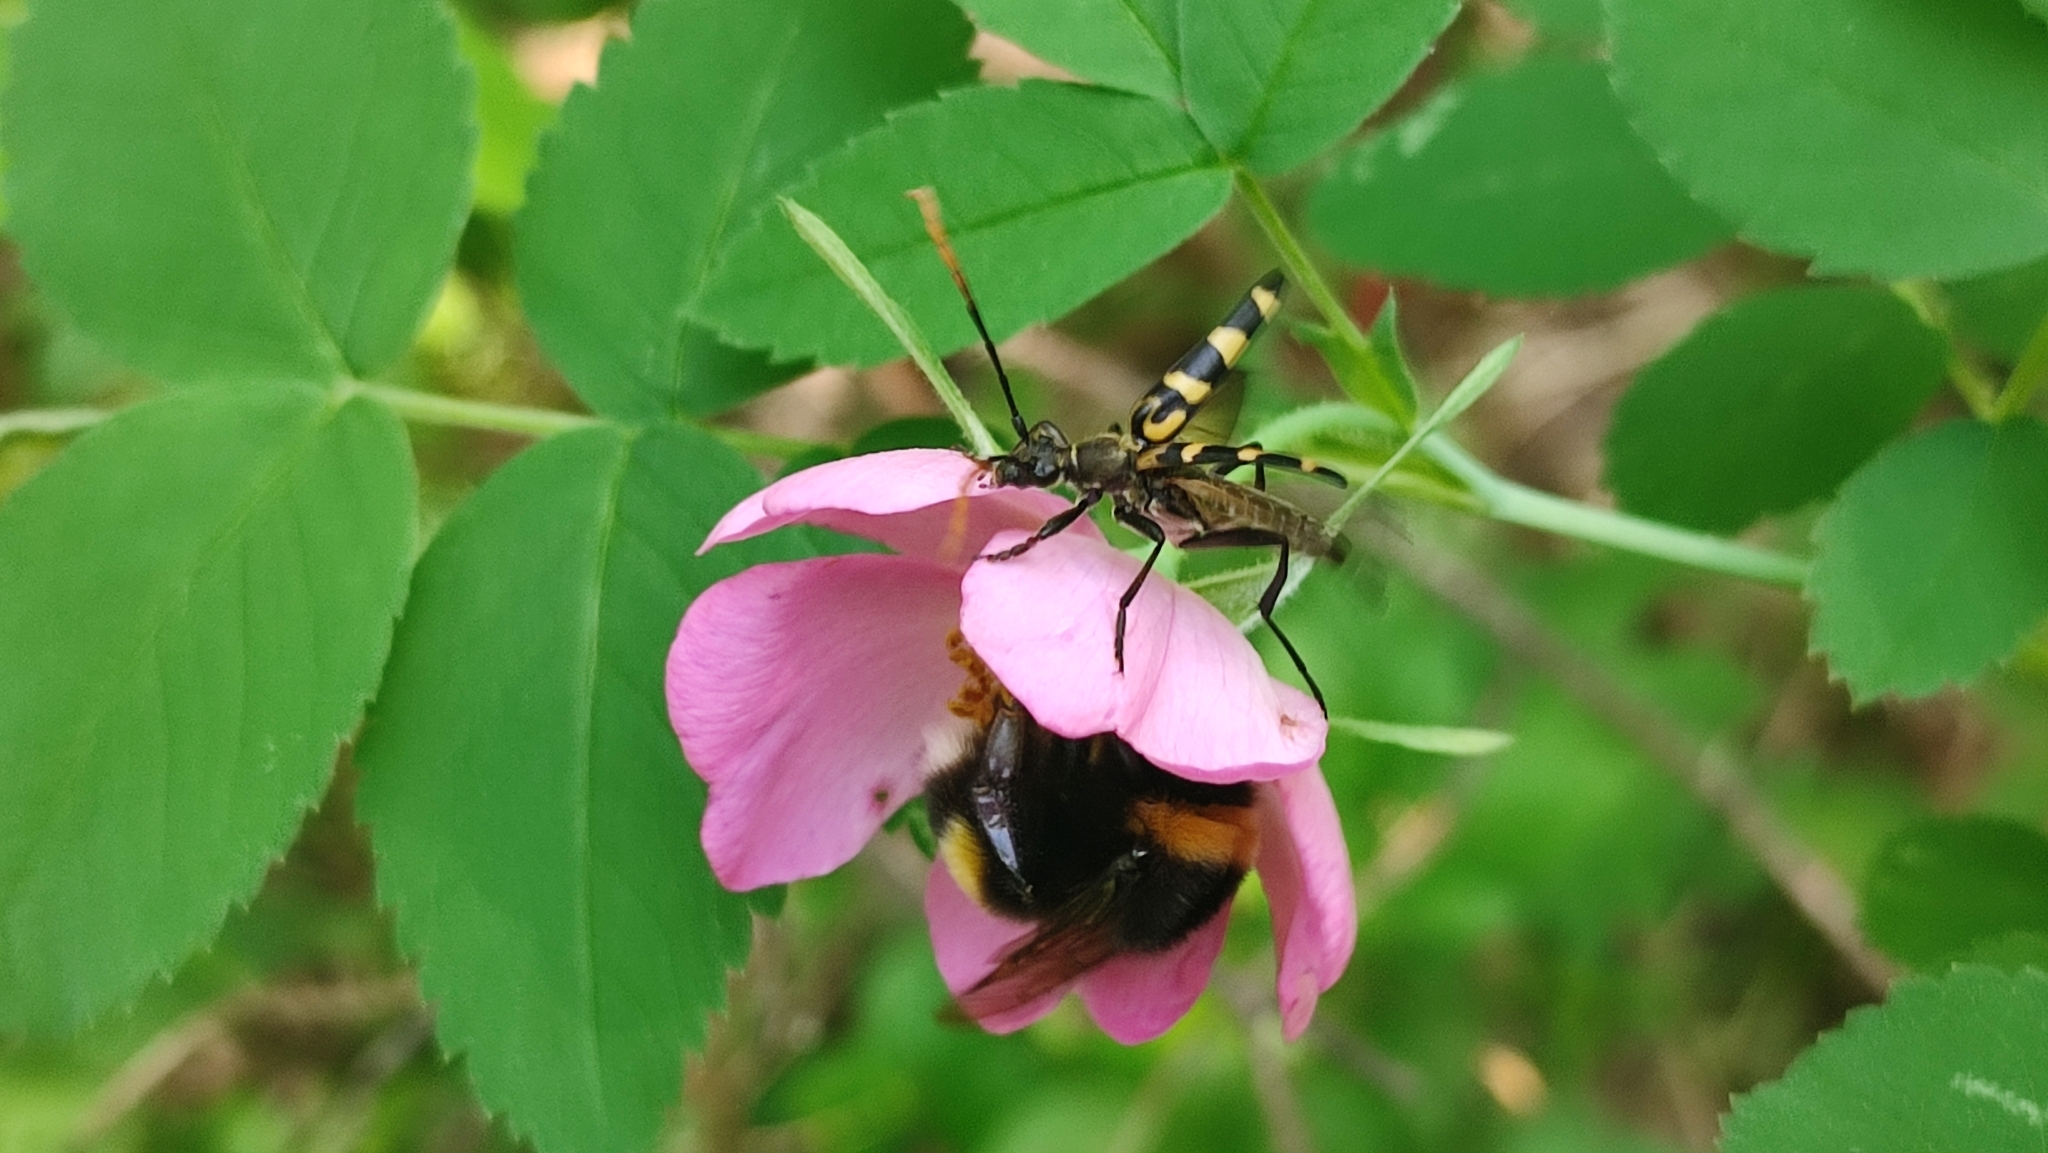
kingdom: Animalia
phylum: Arthropoda
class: Insecta
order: Coleoptera
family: Cerambycidae
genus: Leptura
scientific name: Leptura annularis
